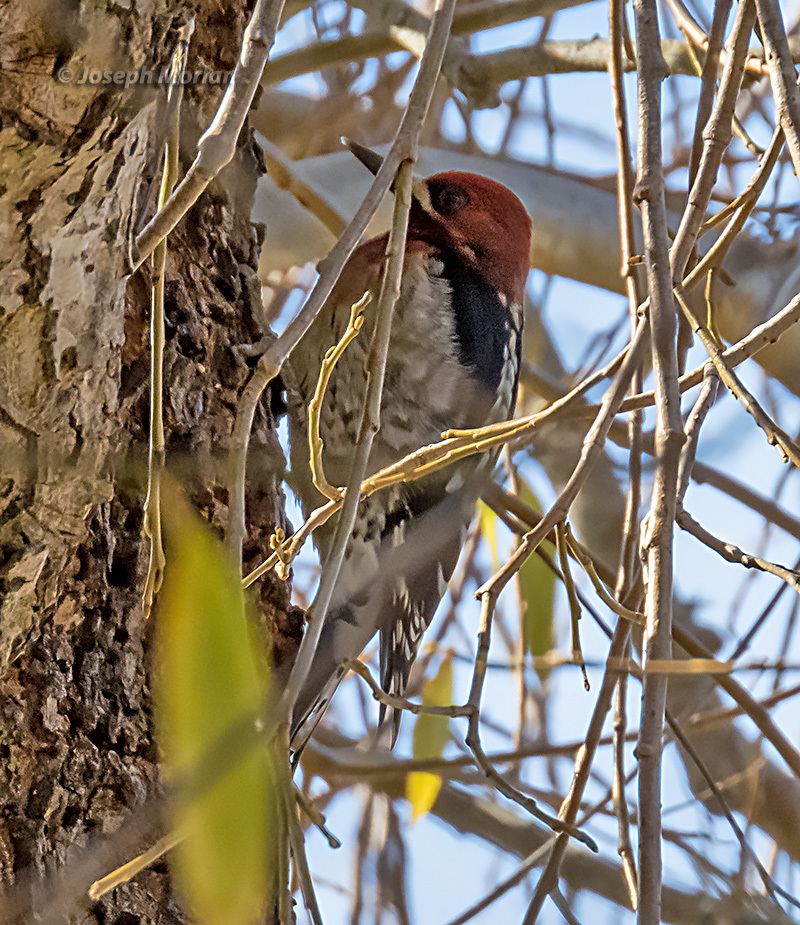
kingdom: Animalia
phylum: Chordata
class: Aves
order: Piciformes
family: Picidae
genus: Sphyrapicus
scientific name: Sphyrapicus ruber
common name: Red-breasted sapsucker
